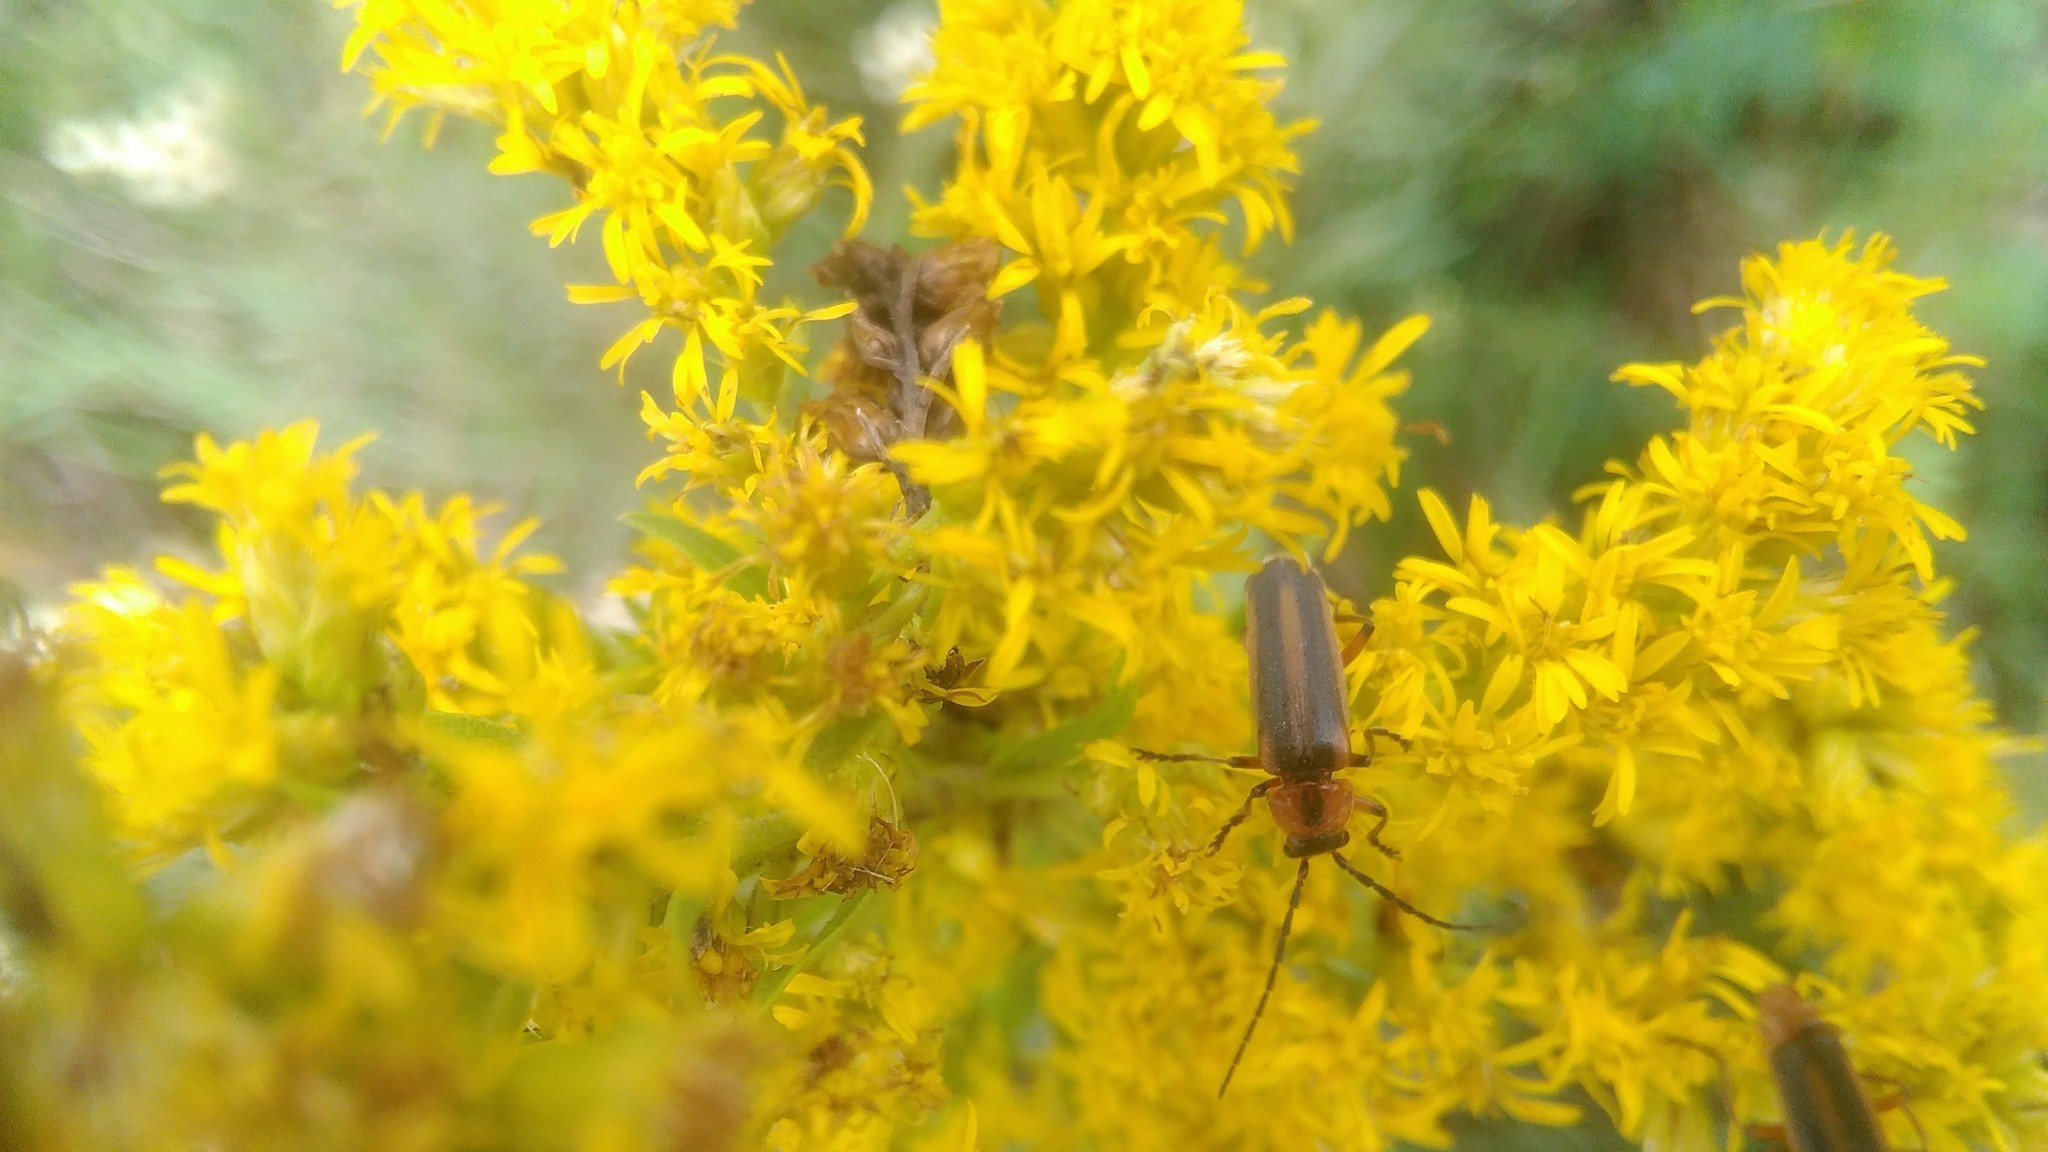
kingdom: Animalia
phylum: Arthropoda
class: Insecta
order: Coleoptera
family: Cantharidae
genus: Discodon
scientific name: Discodon
